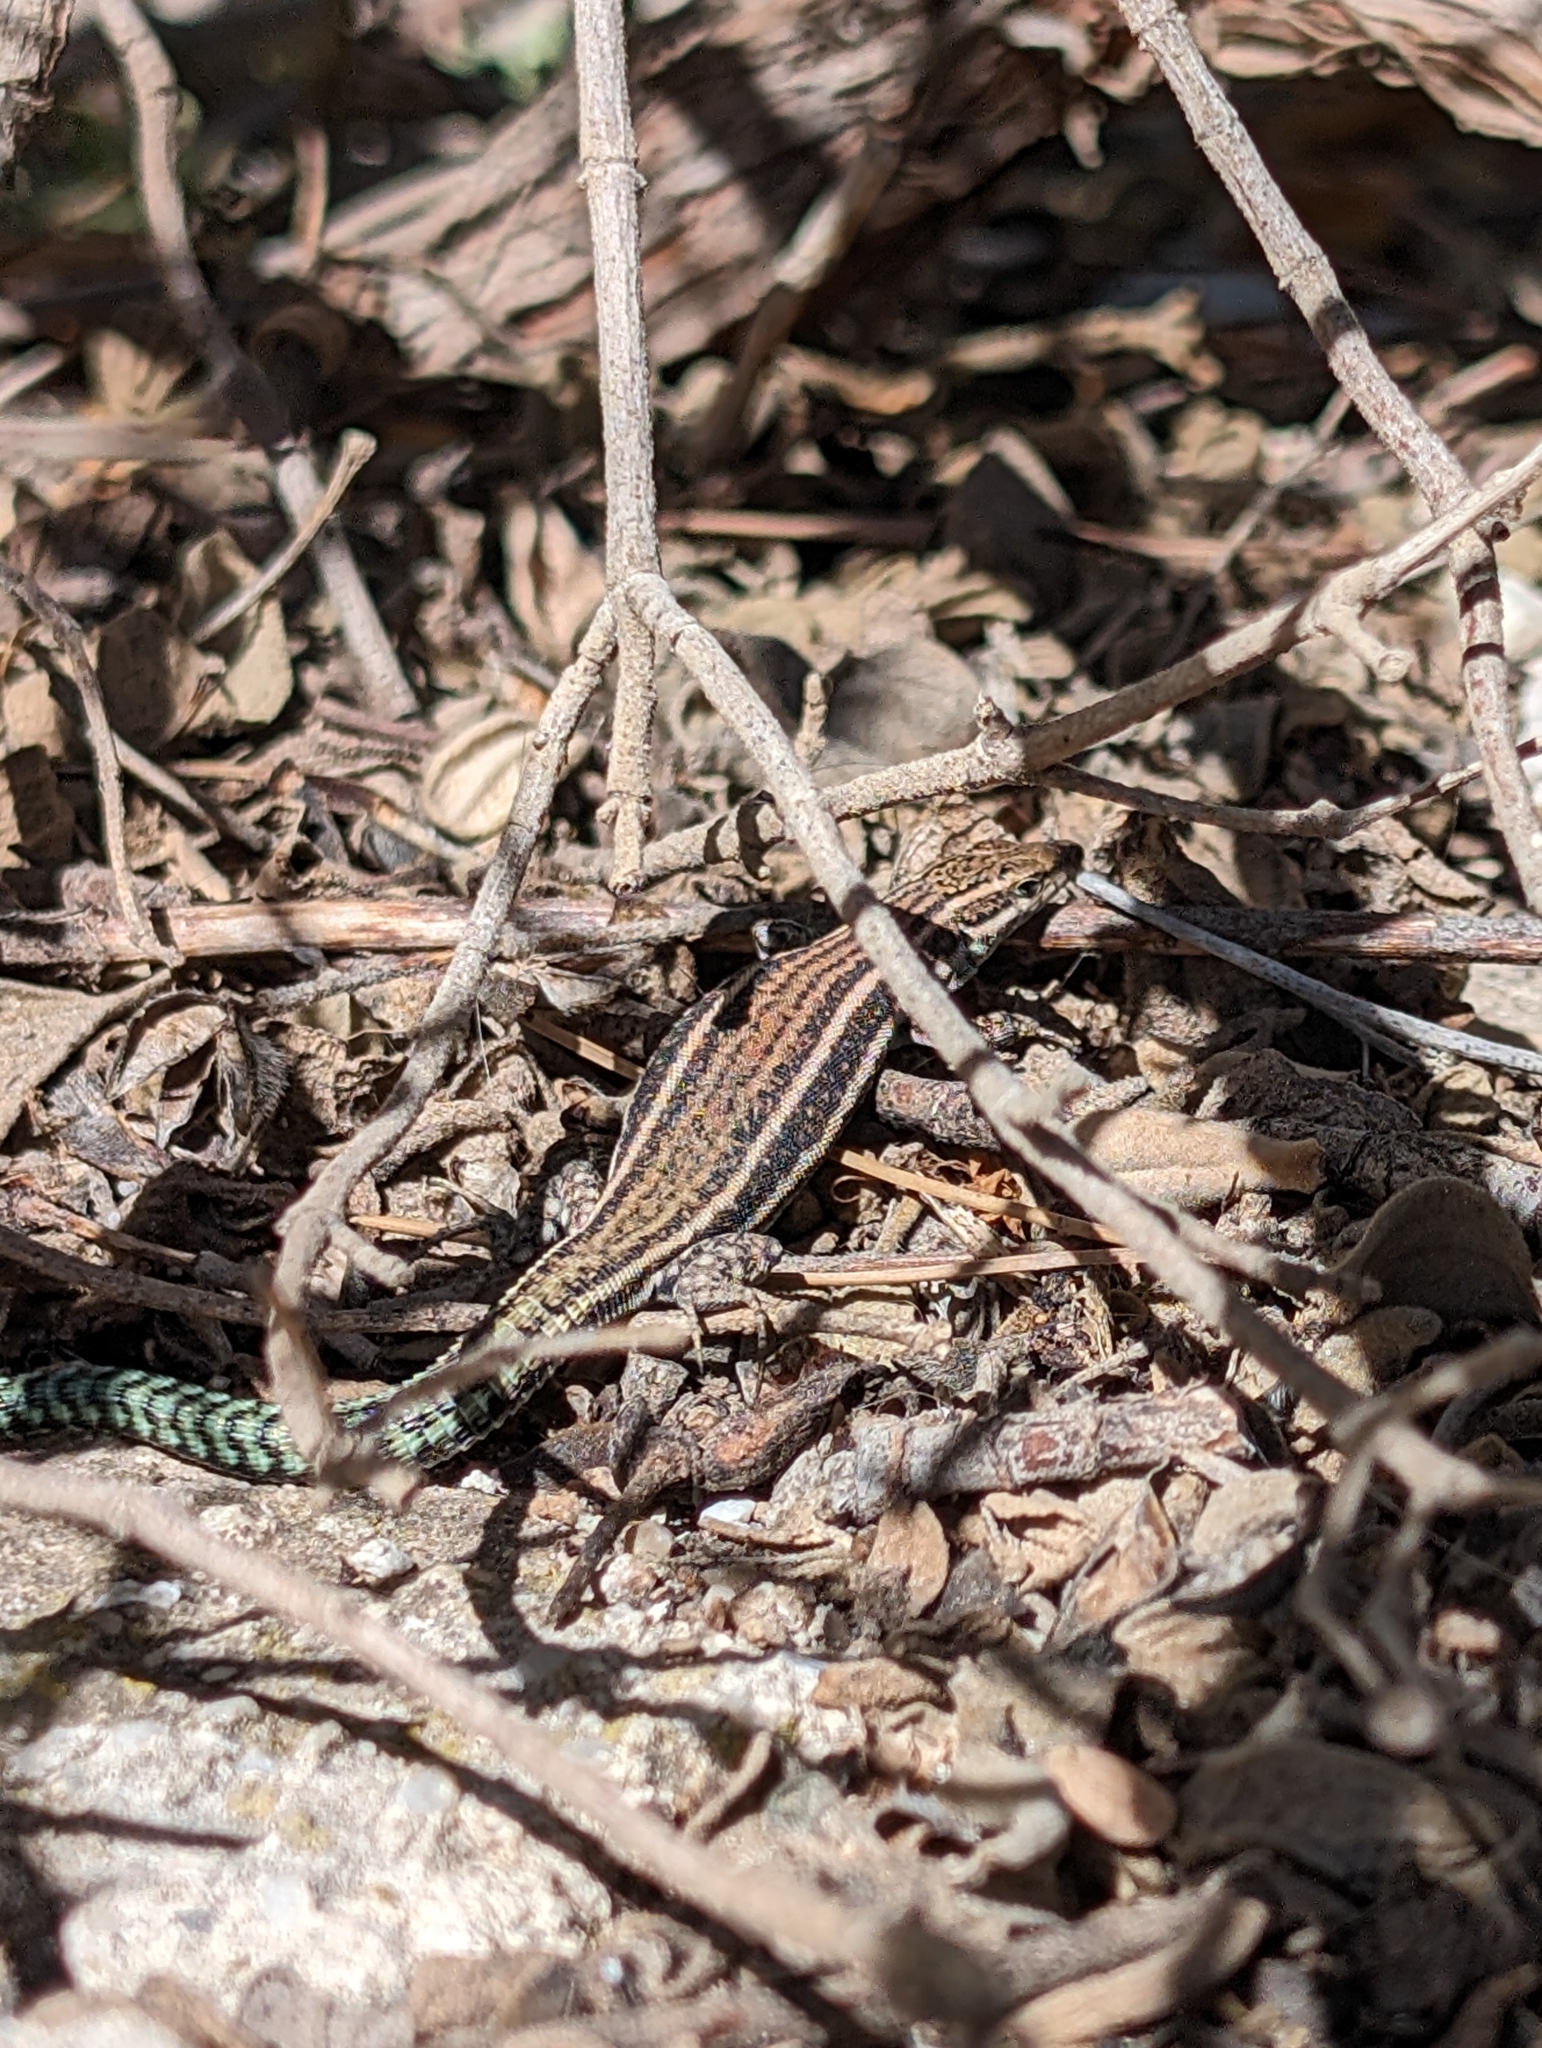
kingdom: Animalia
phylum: Chordata
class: Squamata
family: Lacertidae
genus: Podarcis
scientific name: Podarcis hispanicus
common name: Iberian wall lizard
